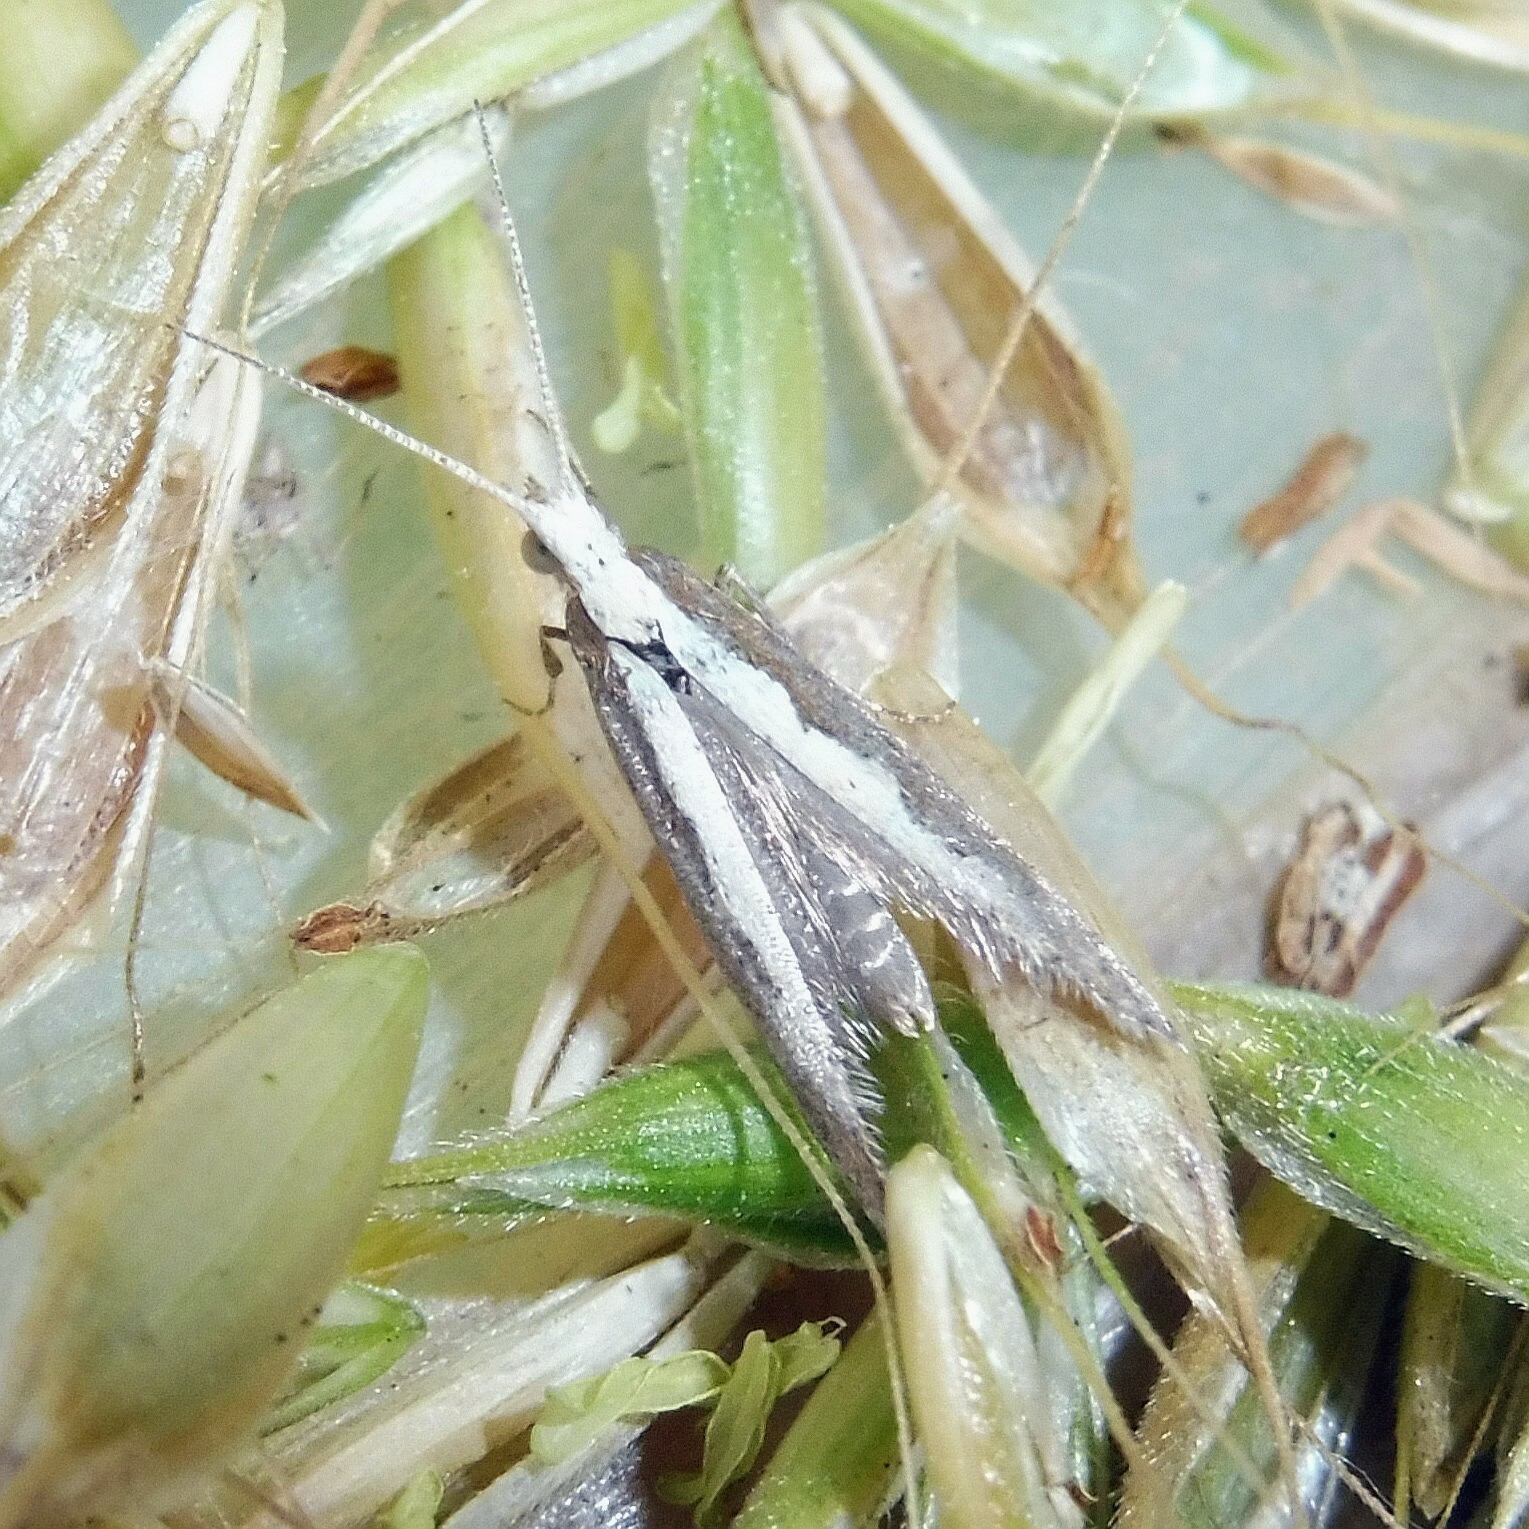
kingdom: Animalia
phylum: Arthropoda
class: Insecta
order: Lepidoptera
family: Plutellidae
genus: Plutella
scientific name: Plutella xylostella
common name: Diamond-back moth
